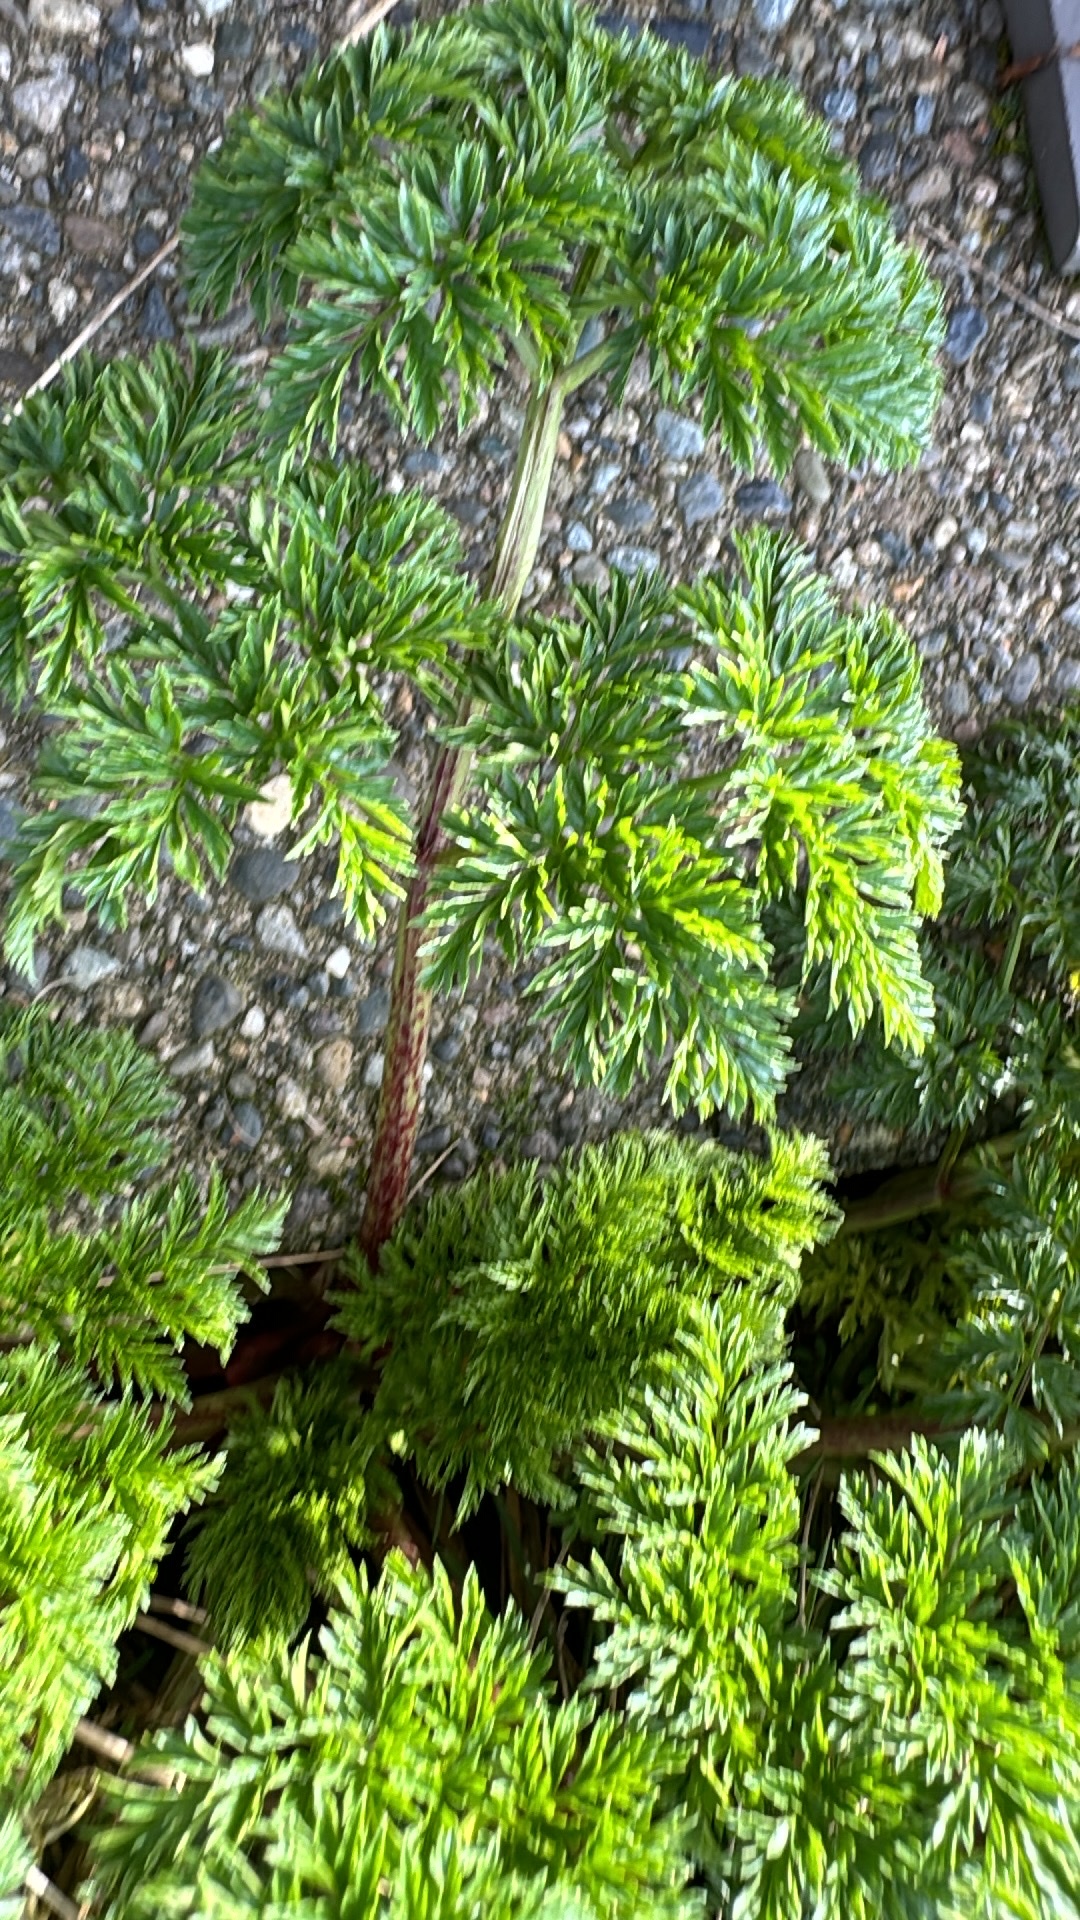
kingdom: Plantae
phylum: Tracheophyta
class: Magnoliopsida
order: Apiales
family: Apiaceae
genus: Conium
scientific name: Conium maculatum
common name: Hemlock
